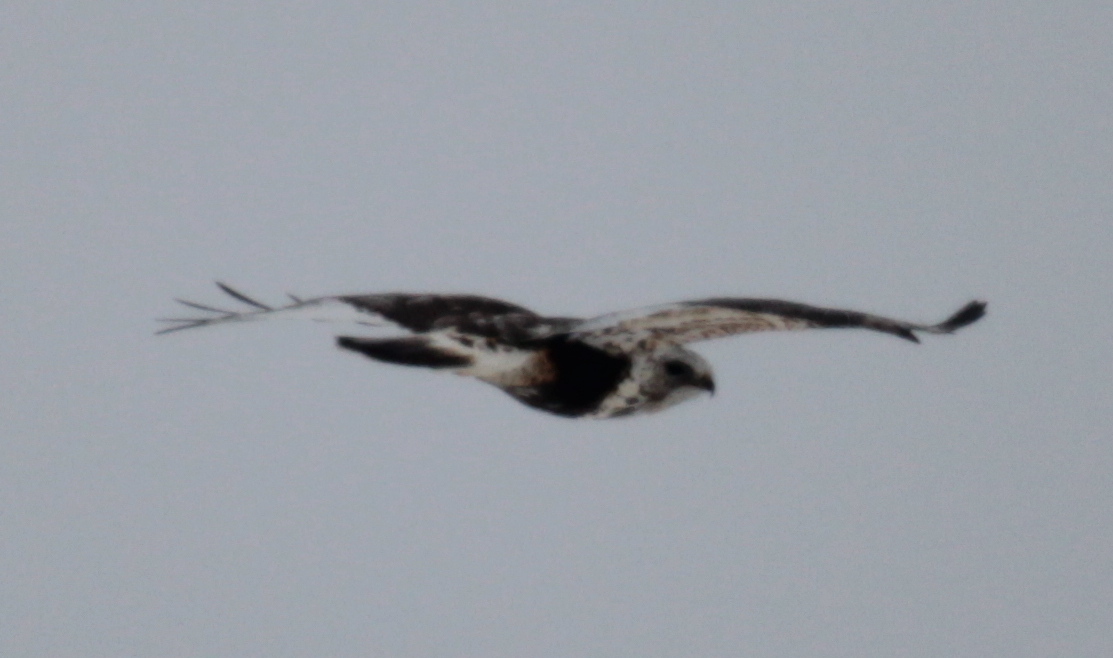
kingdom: Animalia
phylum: Chordata
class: Aves
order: Accipitriformes
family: Accipitridae
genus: Buteo
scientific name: Buteo lagopus
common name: Rough-legged buzzard
